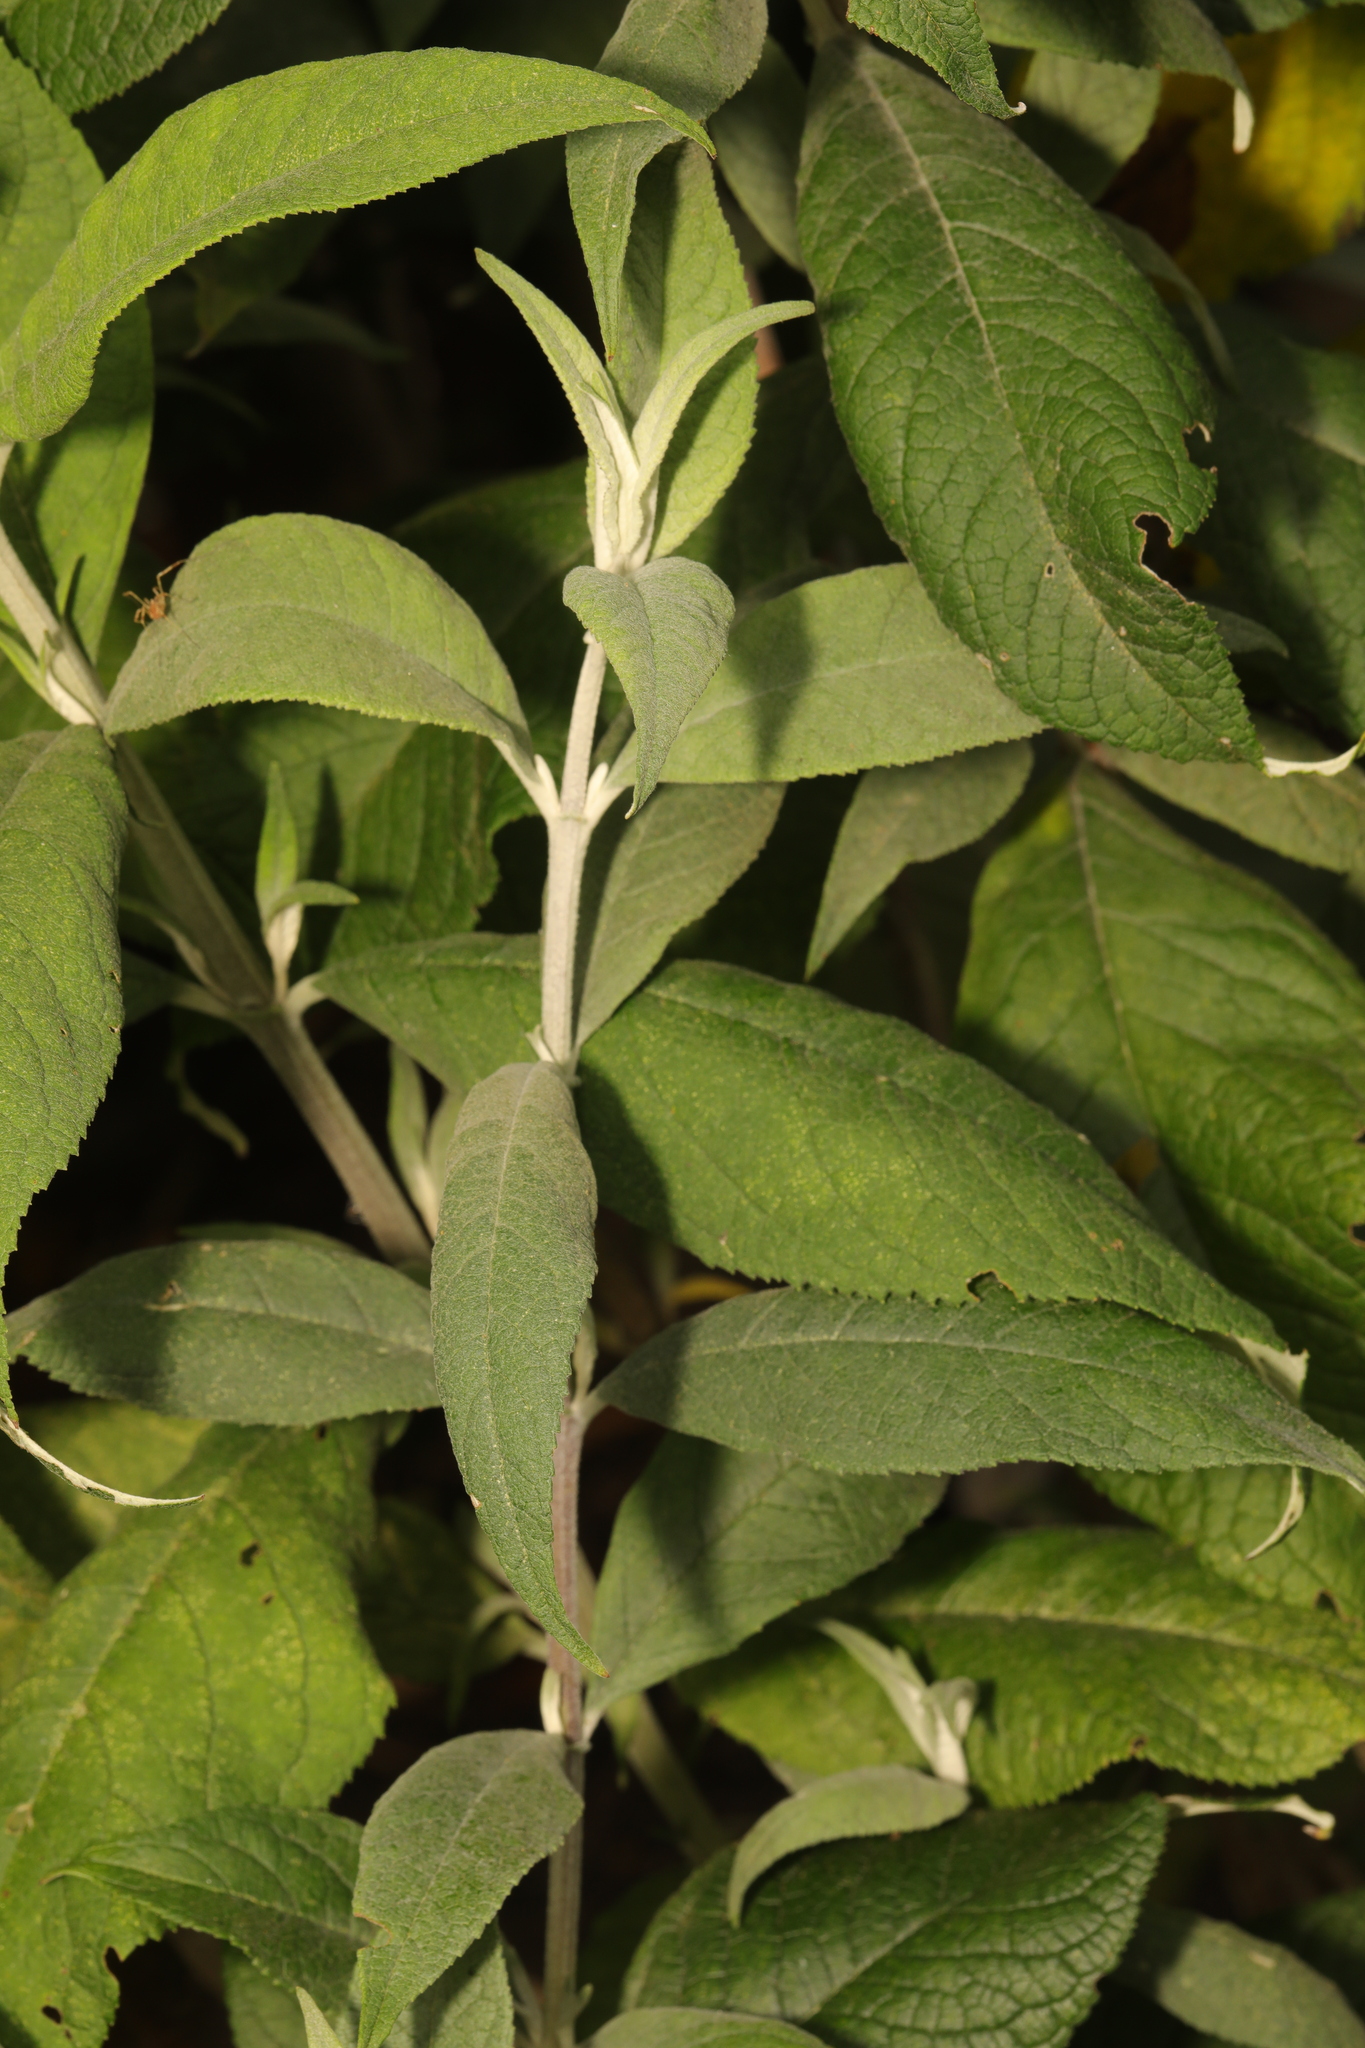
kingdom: Plantae
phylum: Tracheophyta
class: Magnoliopsida
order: Lamiales
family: Scrophulariaceae
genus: Buddleja
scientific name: Buddleja davidii
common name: Butterfly-bush
